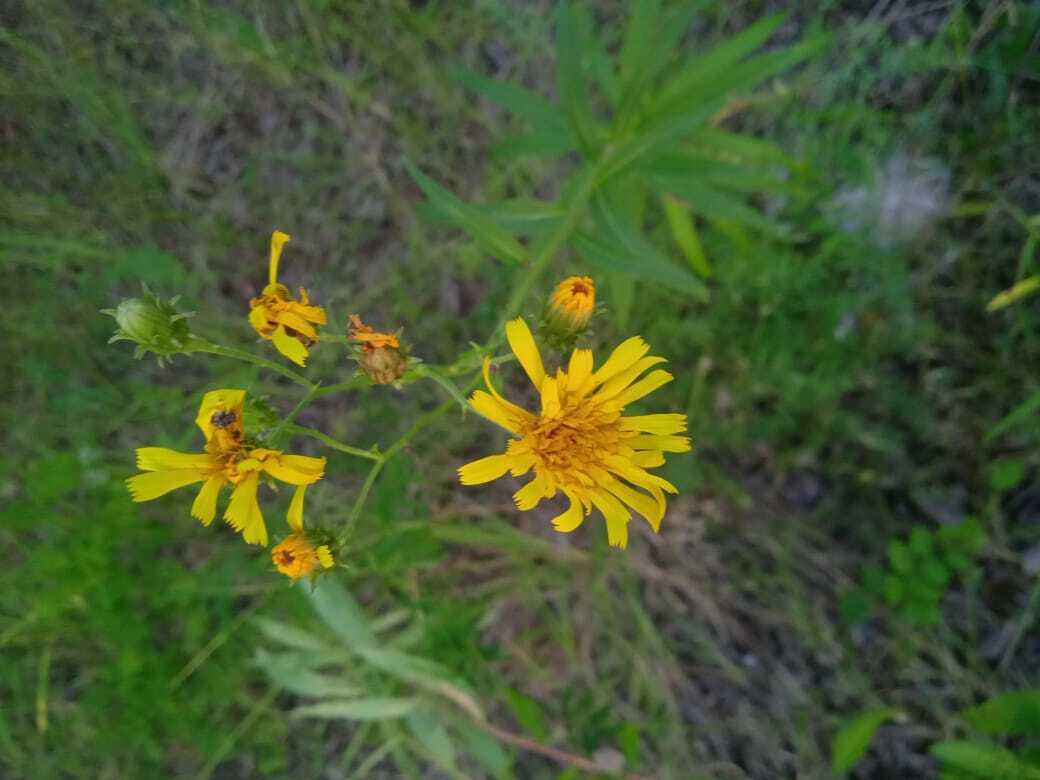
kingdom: Plantae
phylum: Tracheophyta
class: Magnoliopsida
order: Asterales
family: Asteraceae
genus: Hieracium
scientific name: Hieracium umbellatum
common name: Northern hawkweed
